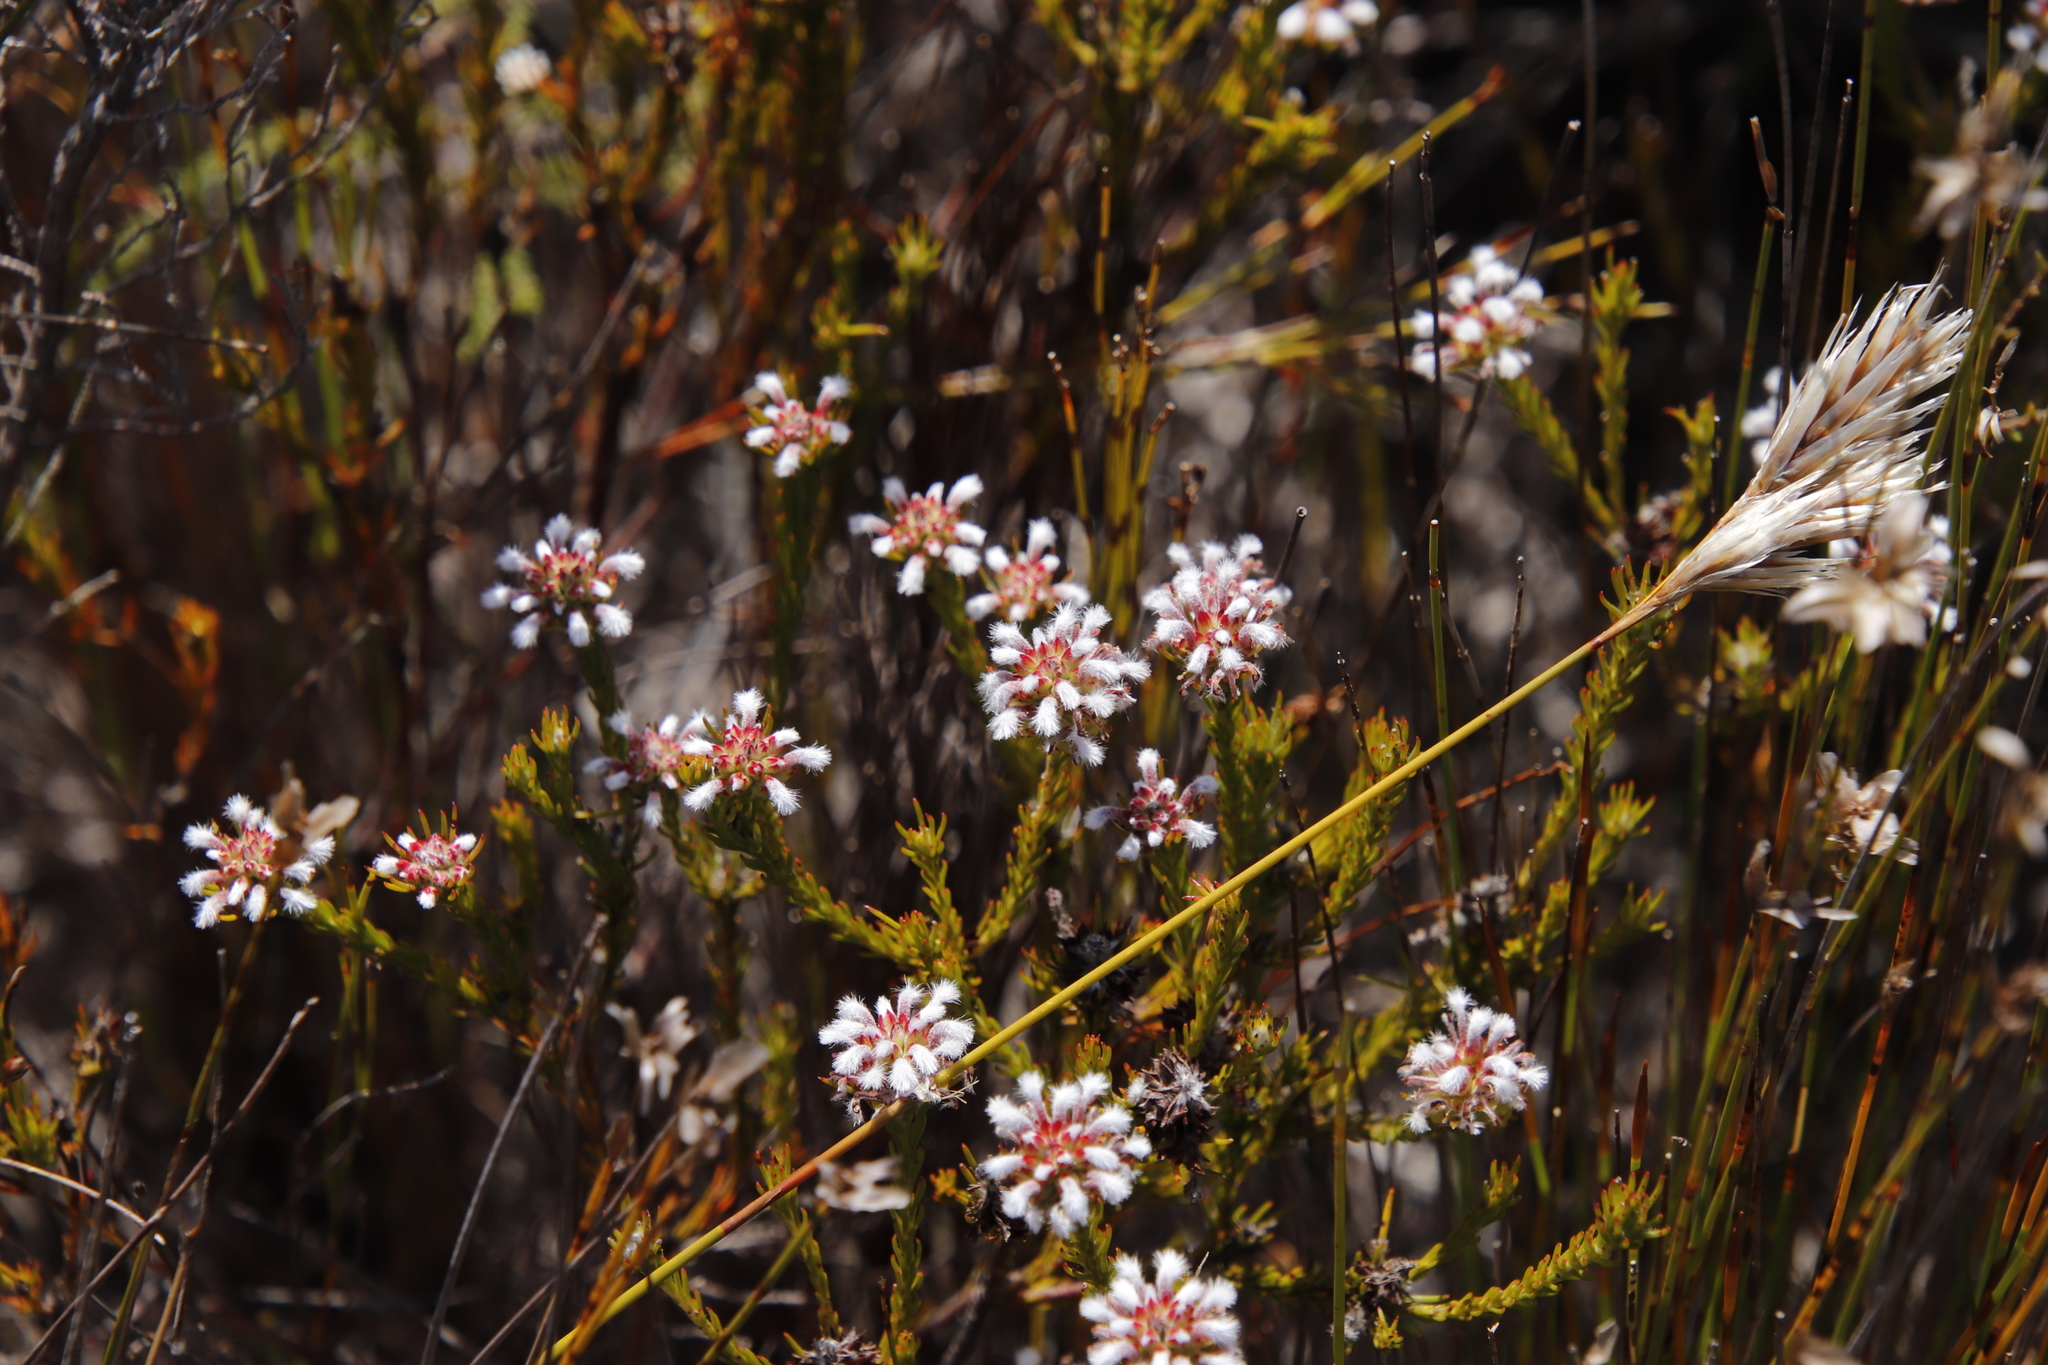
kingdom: Plantae
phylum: Tracheophyta
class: Magnoliopsida
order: Proteales
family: Proteaceae
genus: Spatalla
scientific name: Spatalla squamata
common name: Silky spoon
